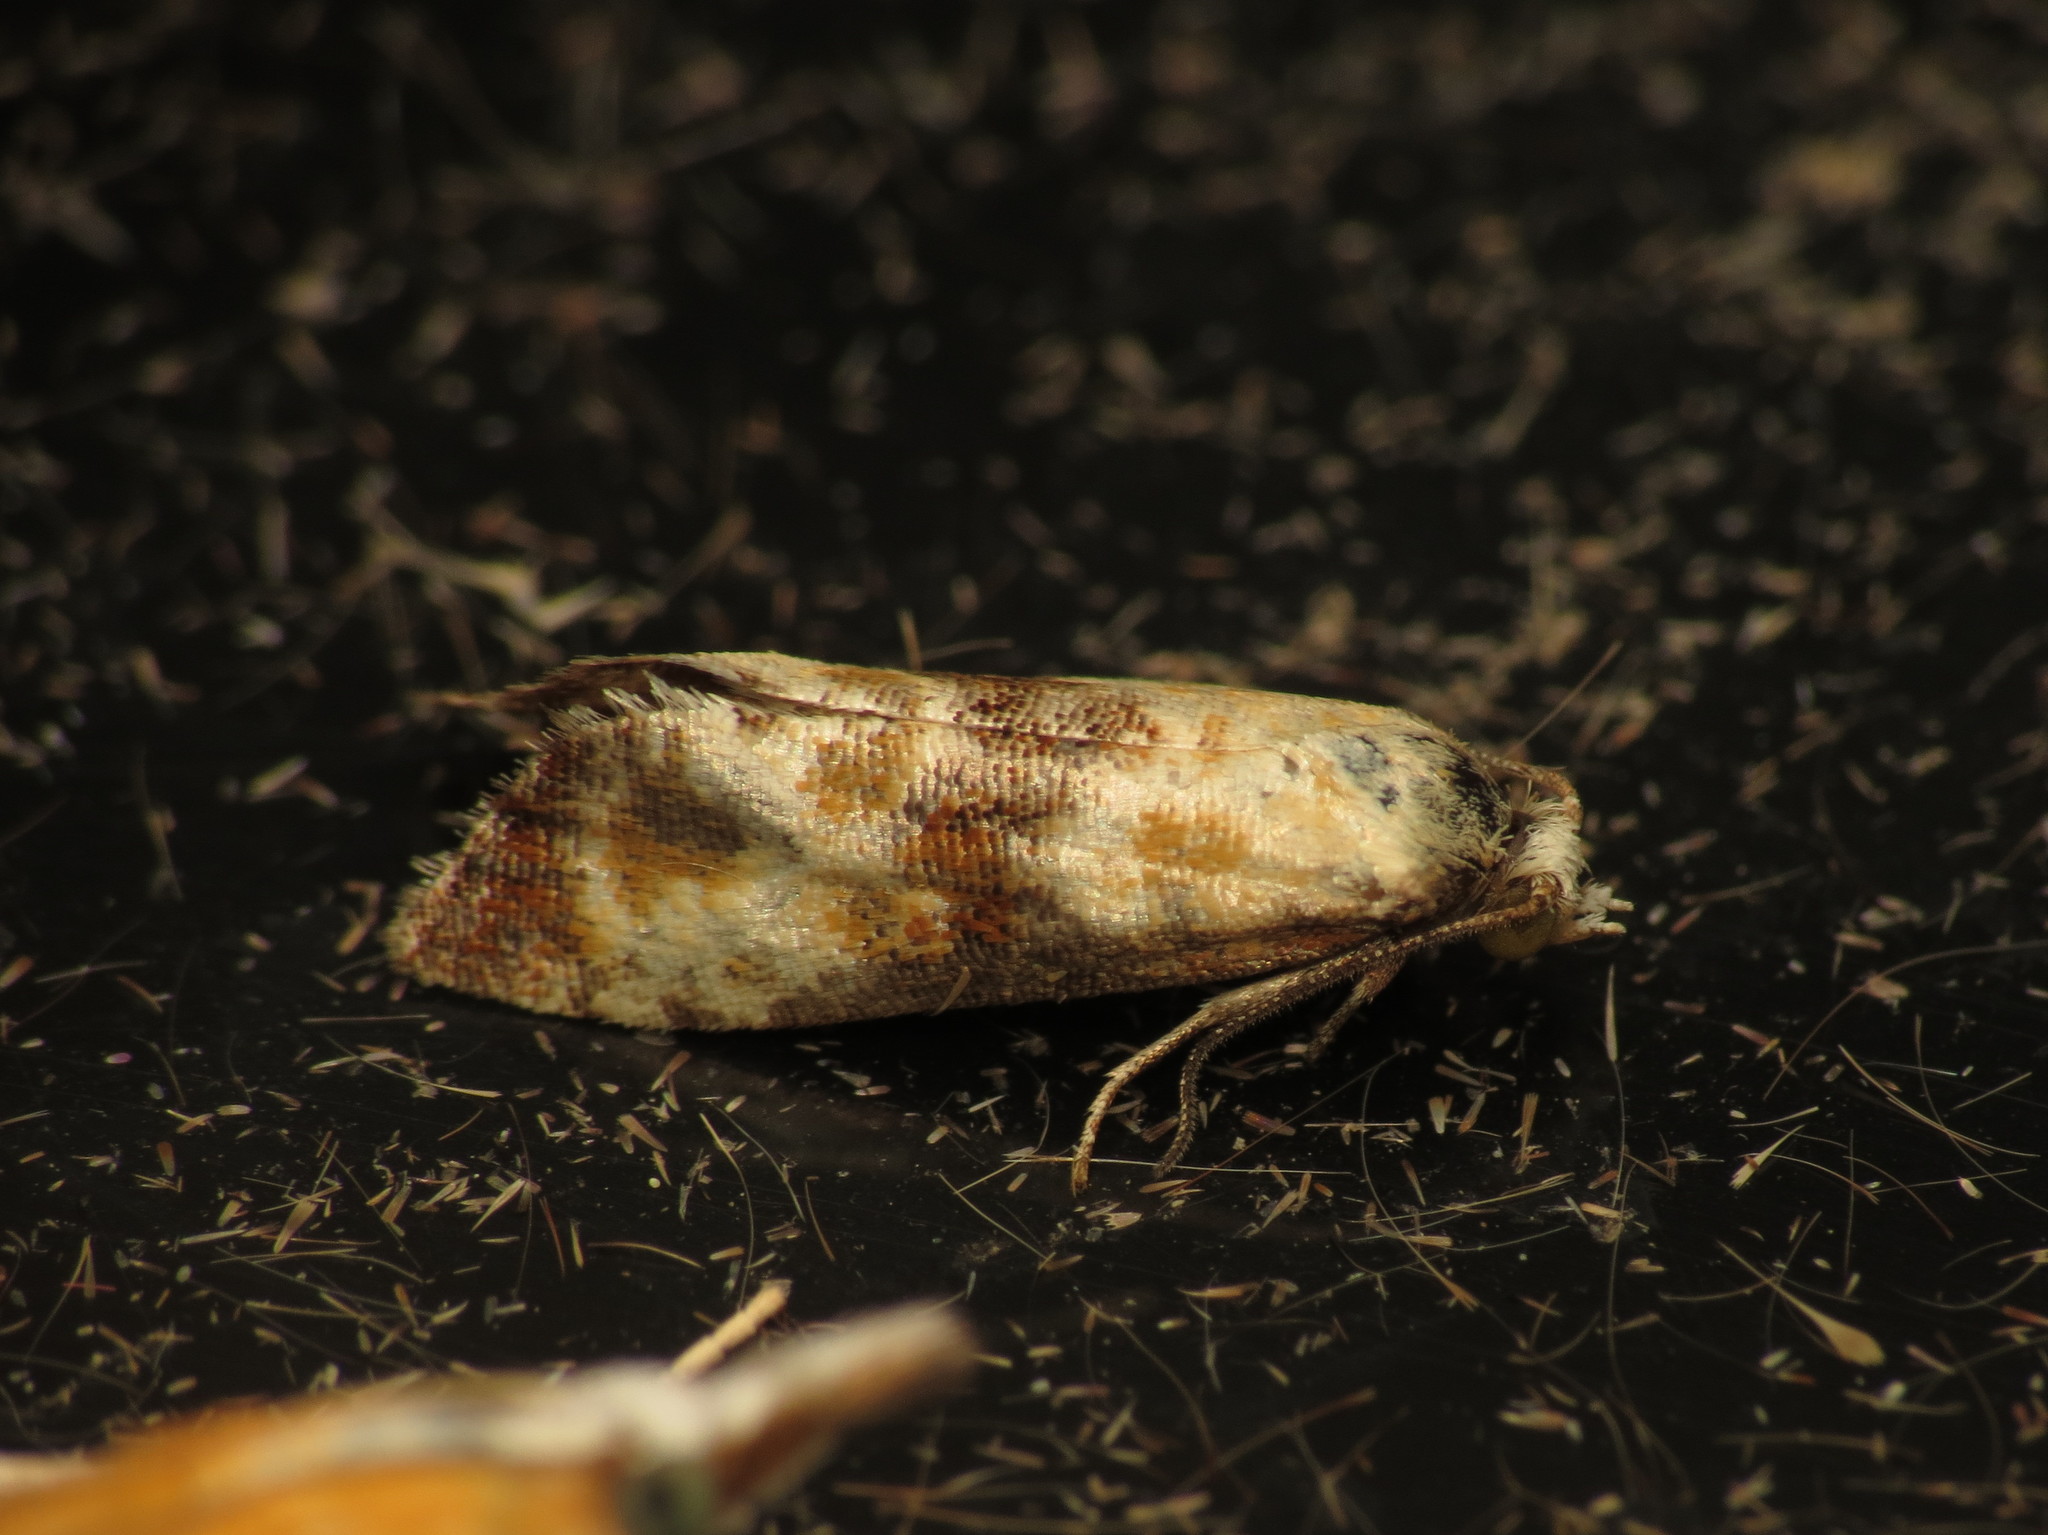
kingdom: Animalia
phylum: Arthropoda
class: Insecta
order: Lepidoptera
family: Tortricidae
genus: Eupoecilia
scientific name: Eupoecilia angustana
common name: Marbled conch
